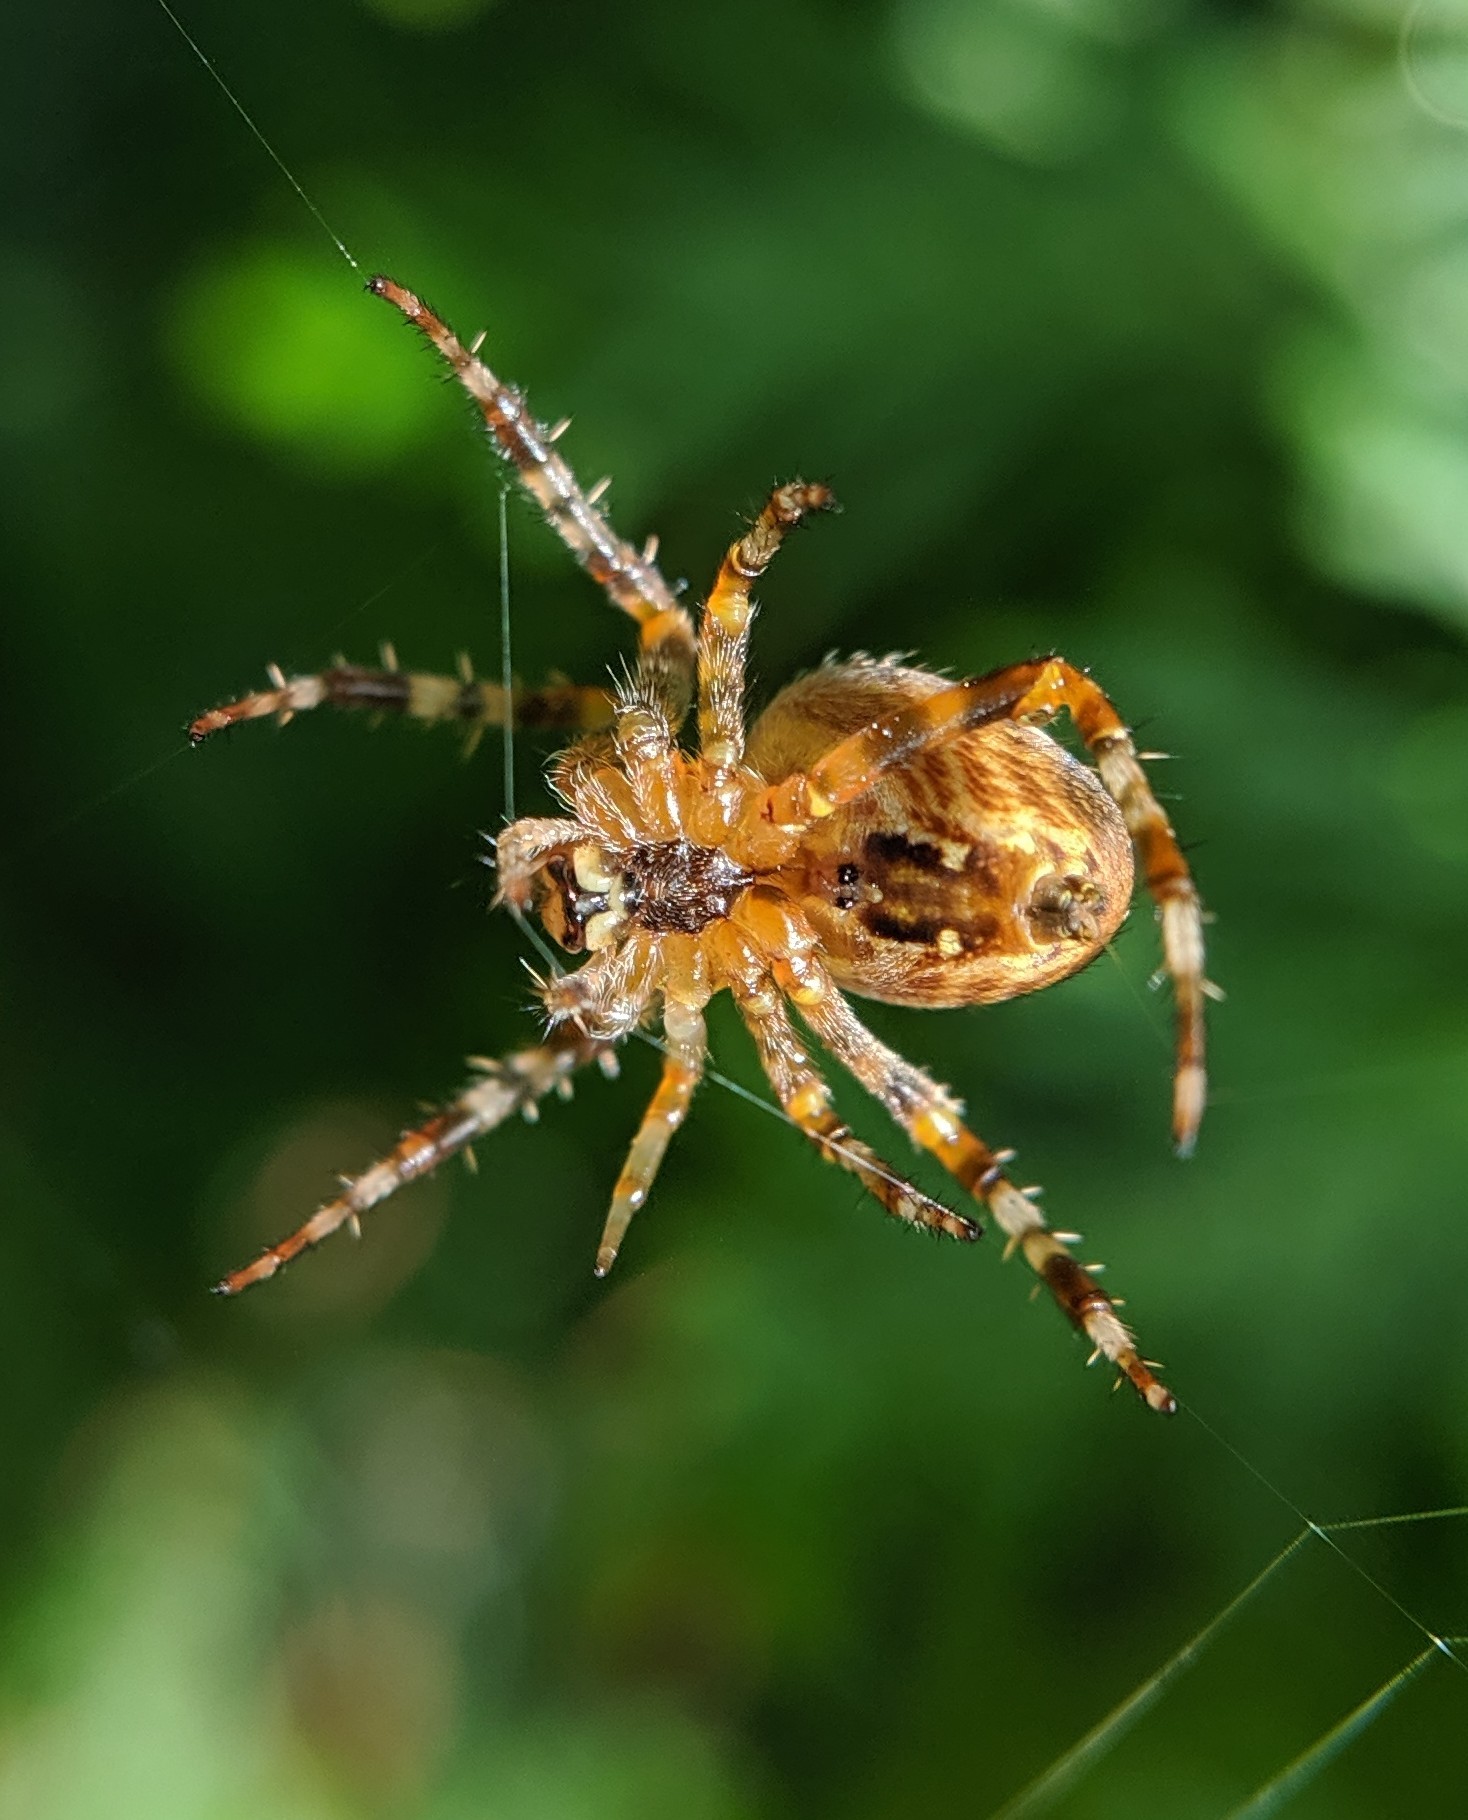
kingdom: Animalia
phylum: Arthropoda
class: Arachnida
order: Araneae
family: Araneidae
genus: Araneus
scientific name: Araneus diadematus
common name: Cross orbweaver
